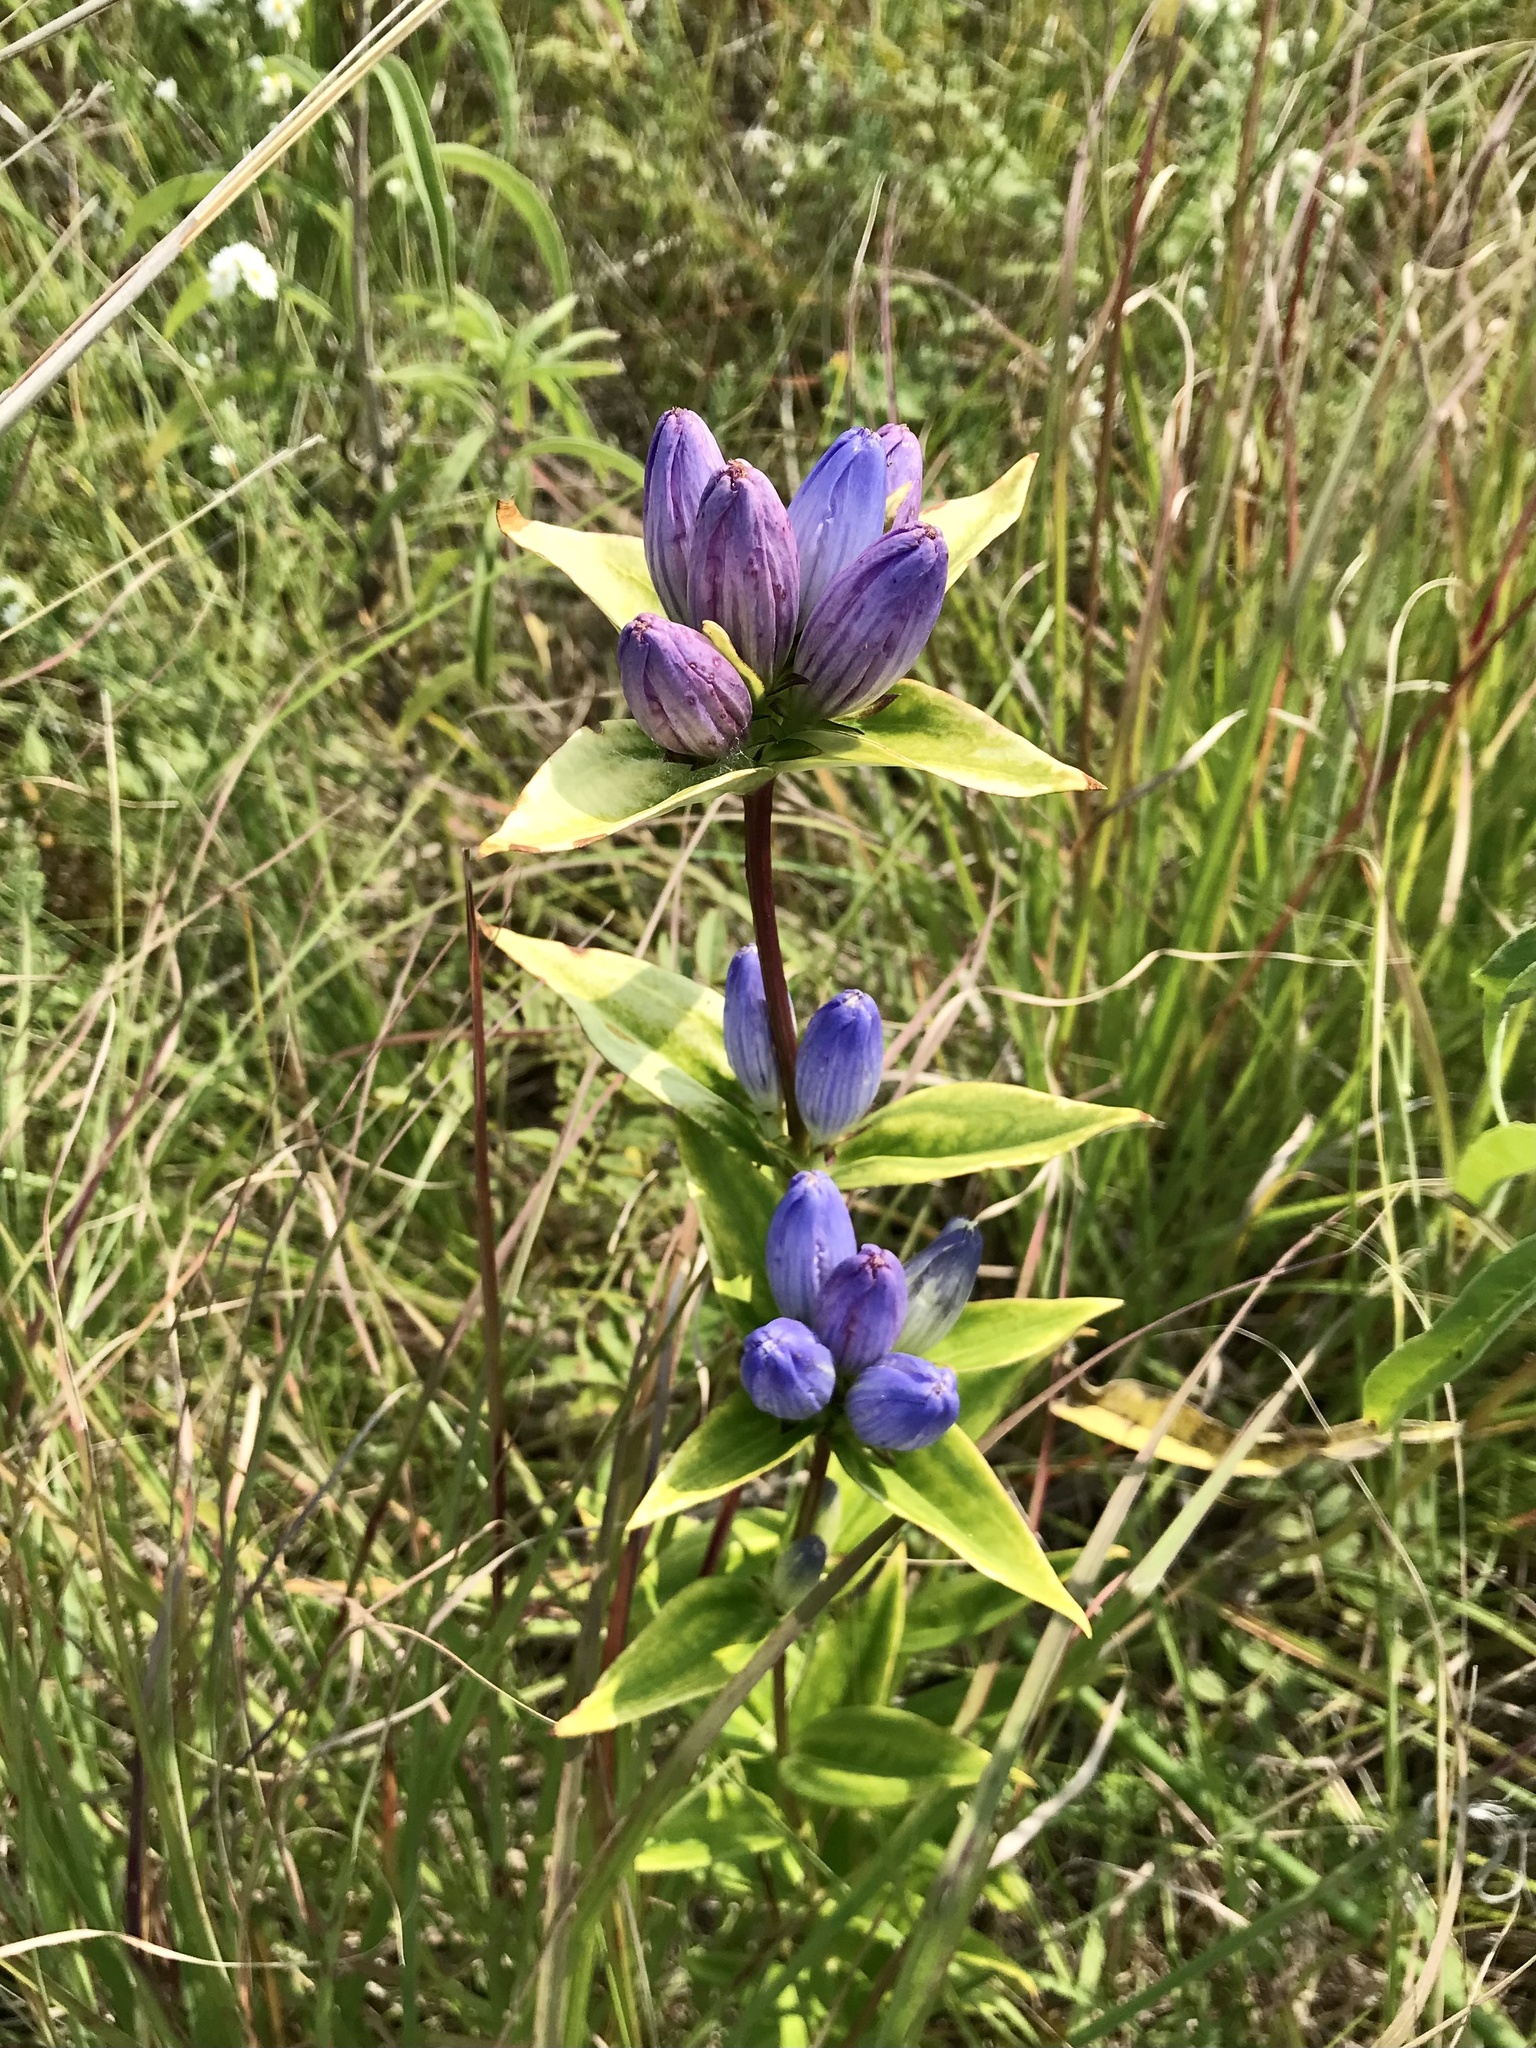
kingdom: Plantae
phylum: Tracheophyta
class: Magnoliopsida
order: Gentianales
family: Gentianaceae
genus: Gentiana
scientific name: Gentiana andrewsii
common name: Bottle gentian
